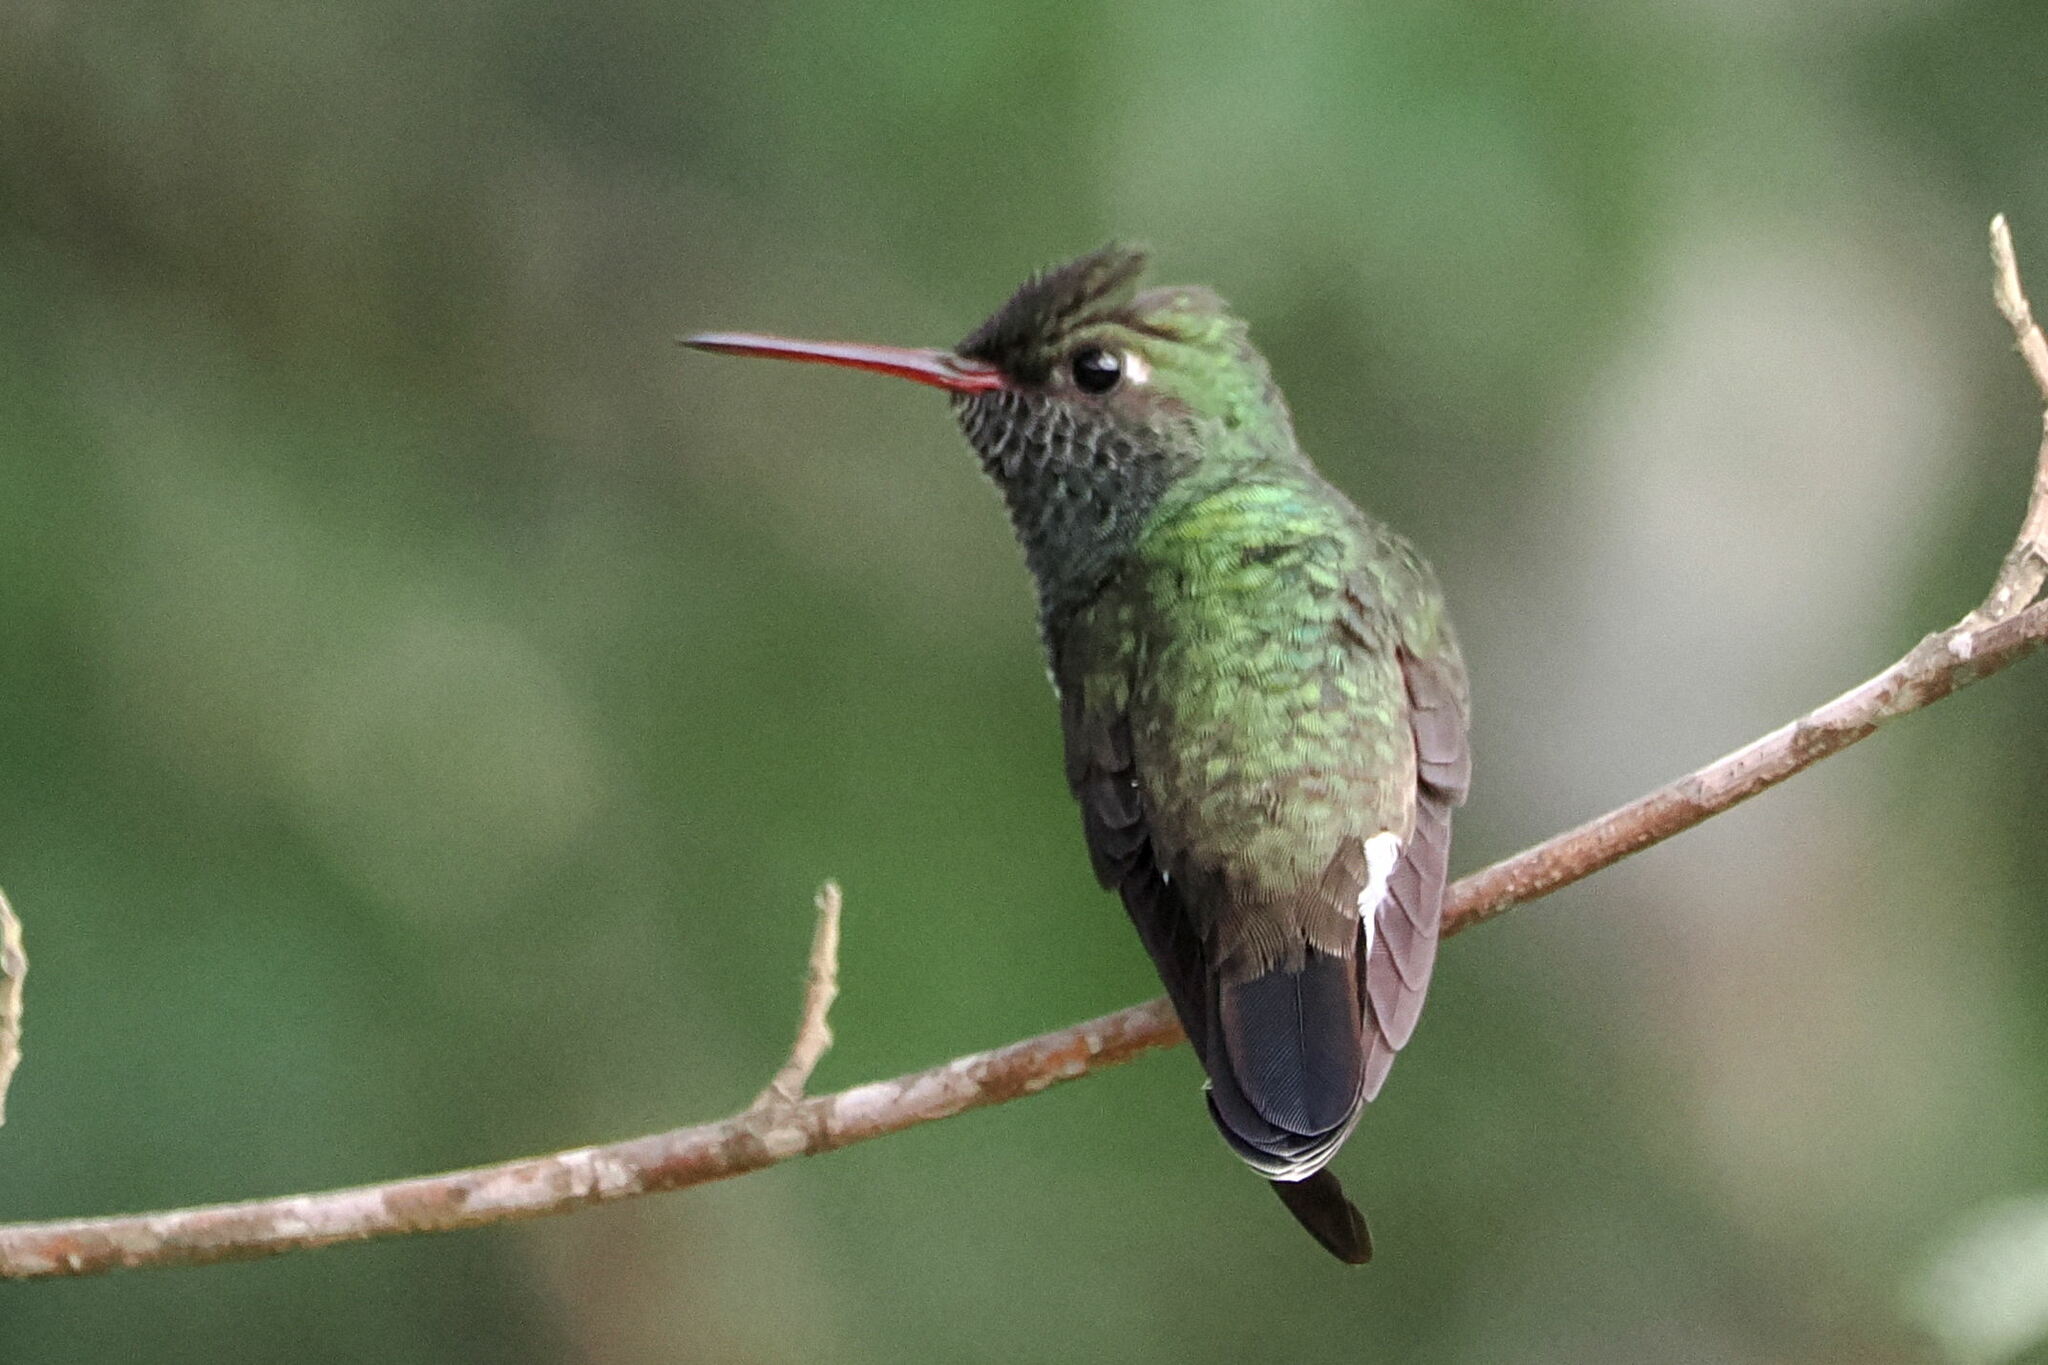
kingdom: Animalia
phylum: Chordata
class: Aves
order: Apodiformes
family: Trochilidae
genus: Chionomesa
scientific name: Chionomesa fimbriata
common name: Glittering-throated emerald
